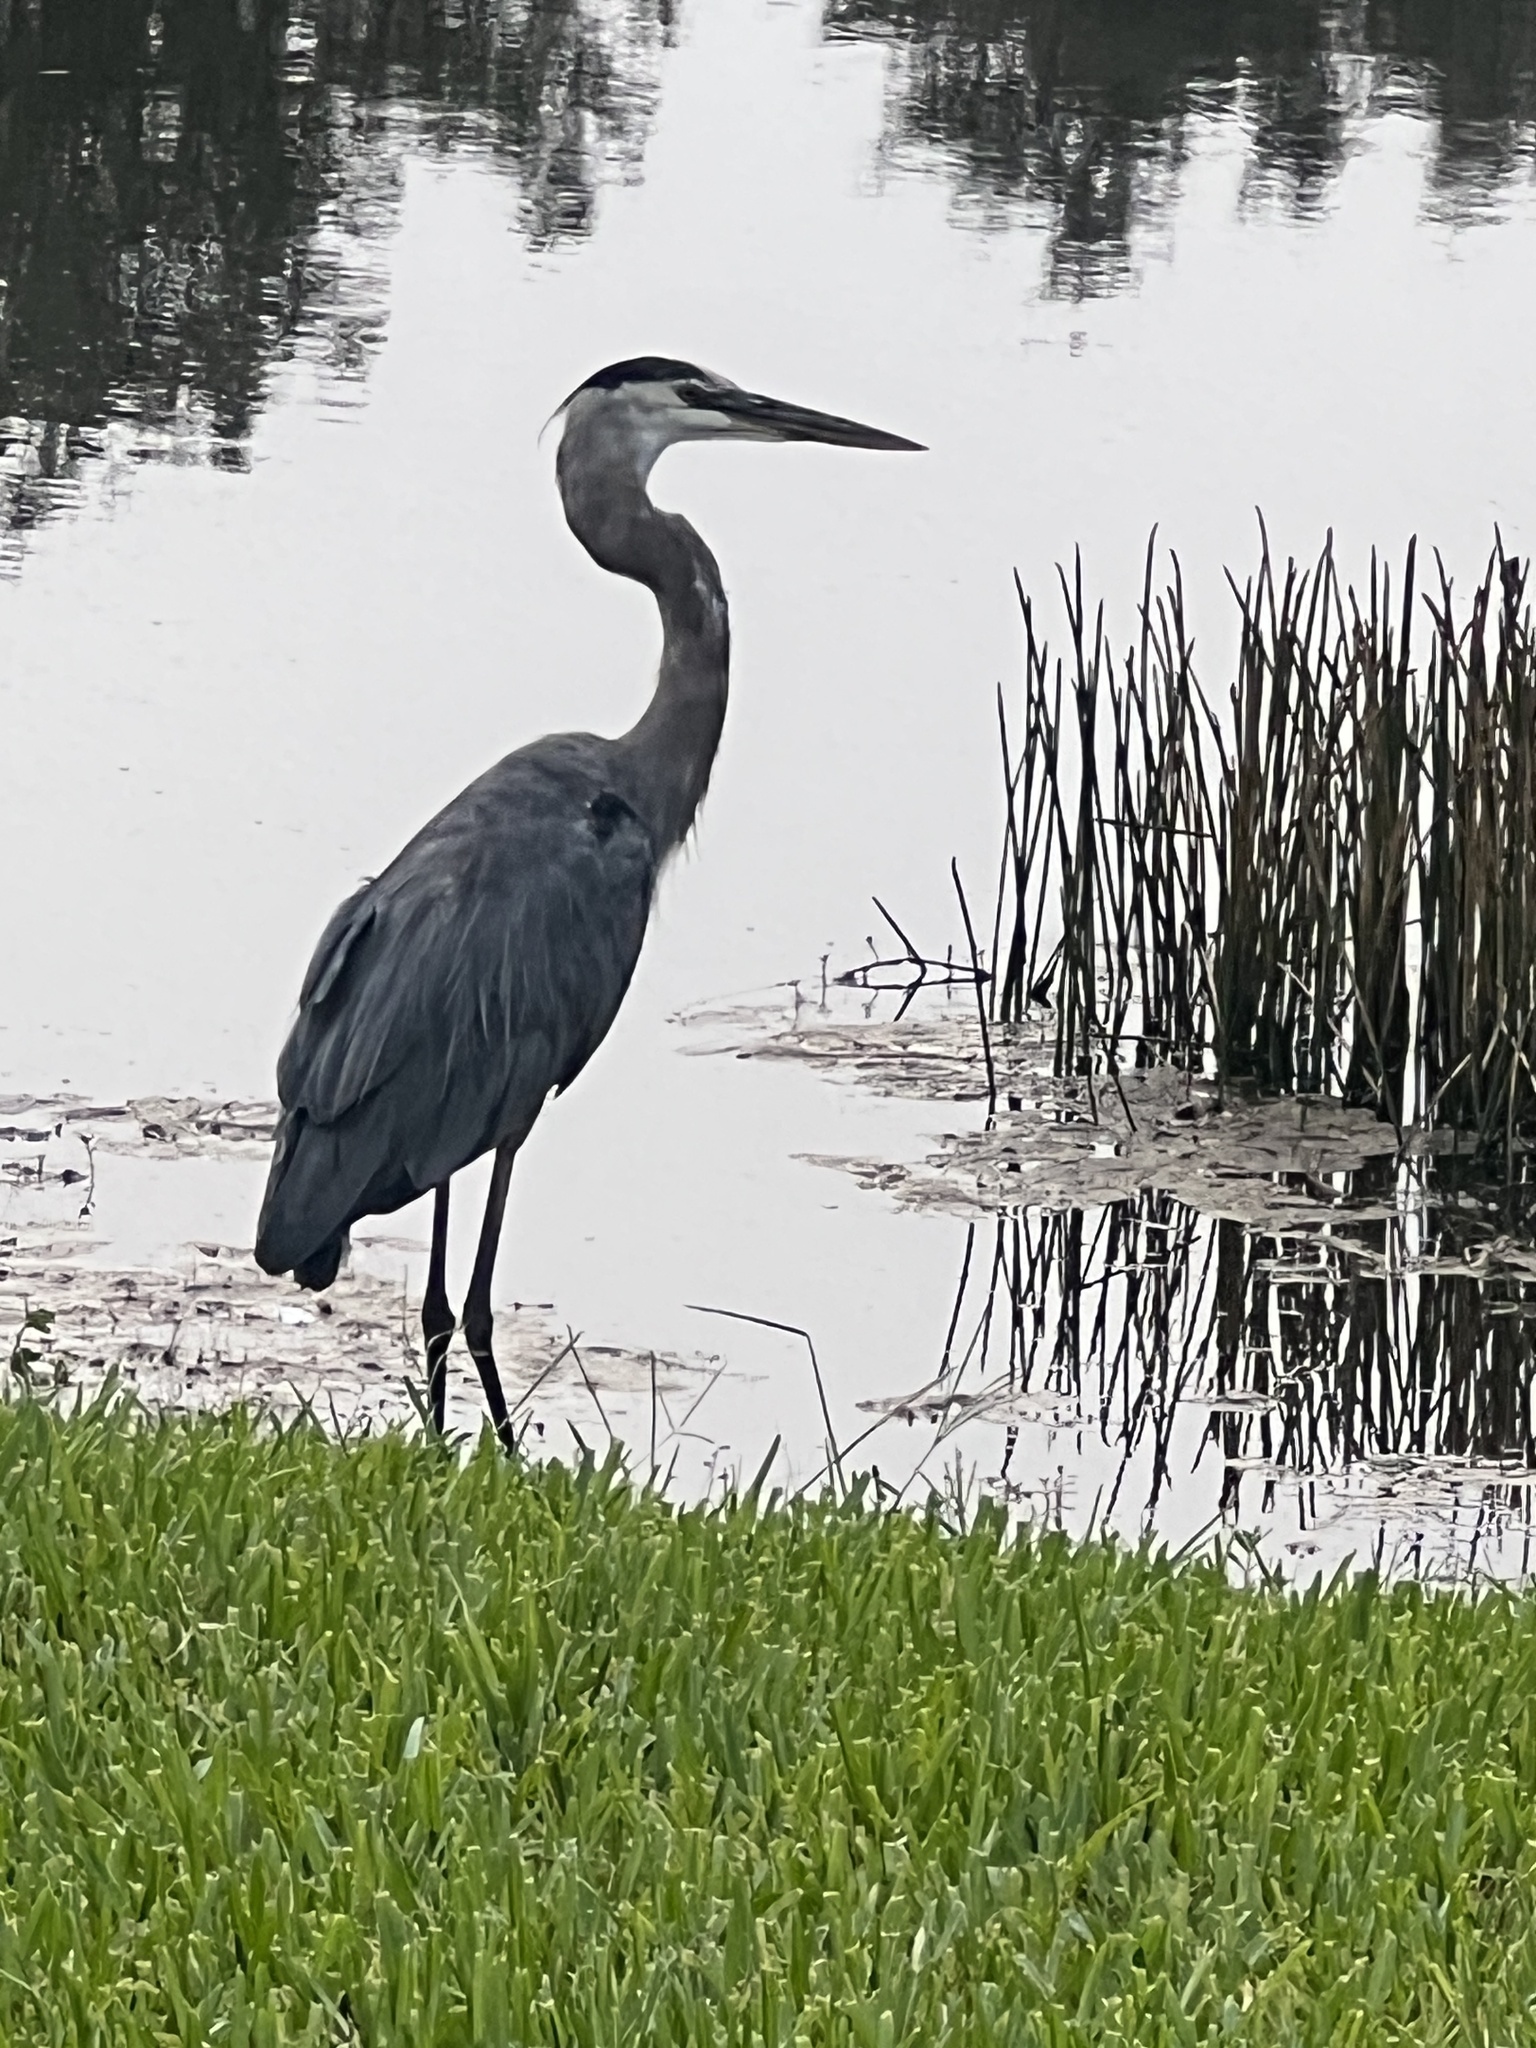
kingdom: Animalia
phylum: Chordata
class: Aves
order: Pelecaniformes
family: Ardeidae
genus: Ardea
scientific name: Ardea herodias
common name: Great blue heron
